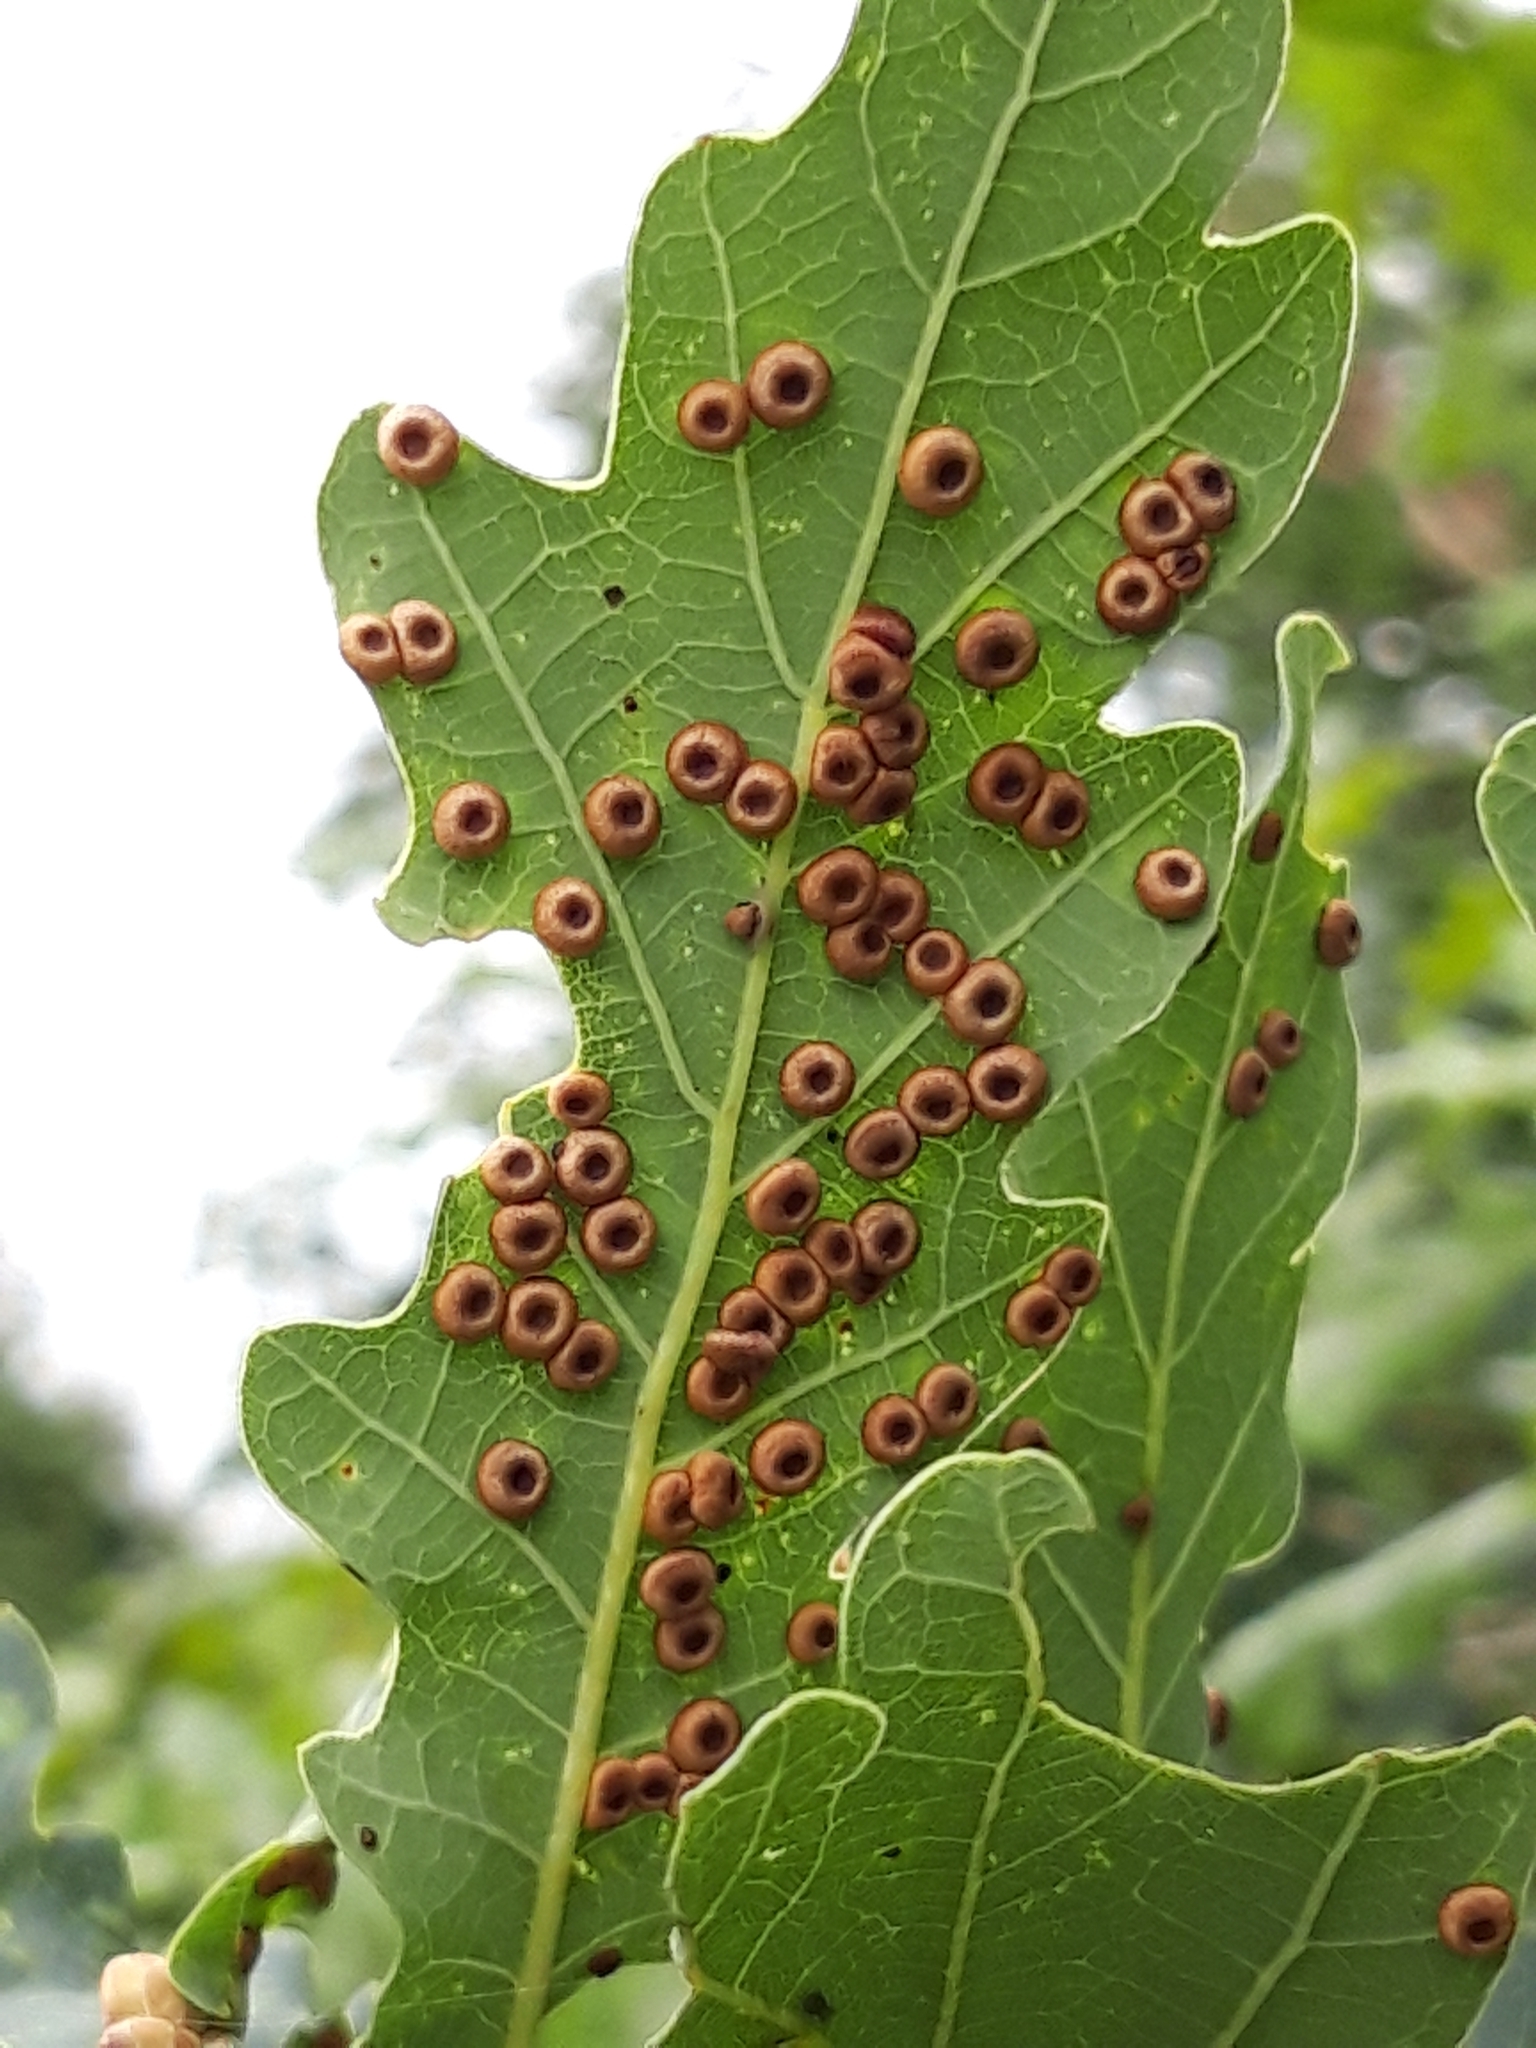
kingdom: Animalia
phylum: Arthropoda
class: Insecta
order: Hymenoptera
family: Cynipidae
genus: Neuroterus
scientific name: Neuroterus numismalis
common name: Silk-button spangle gall
